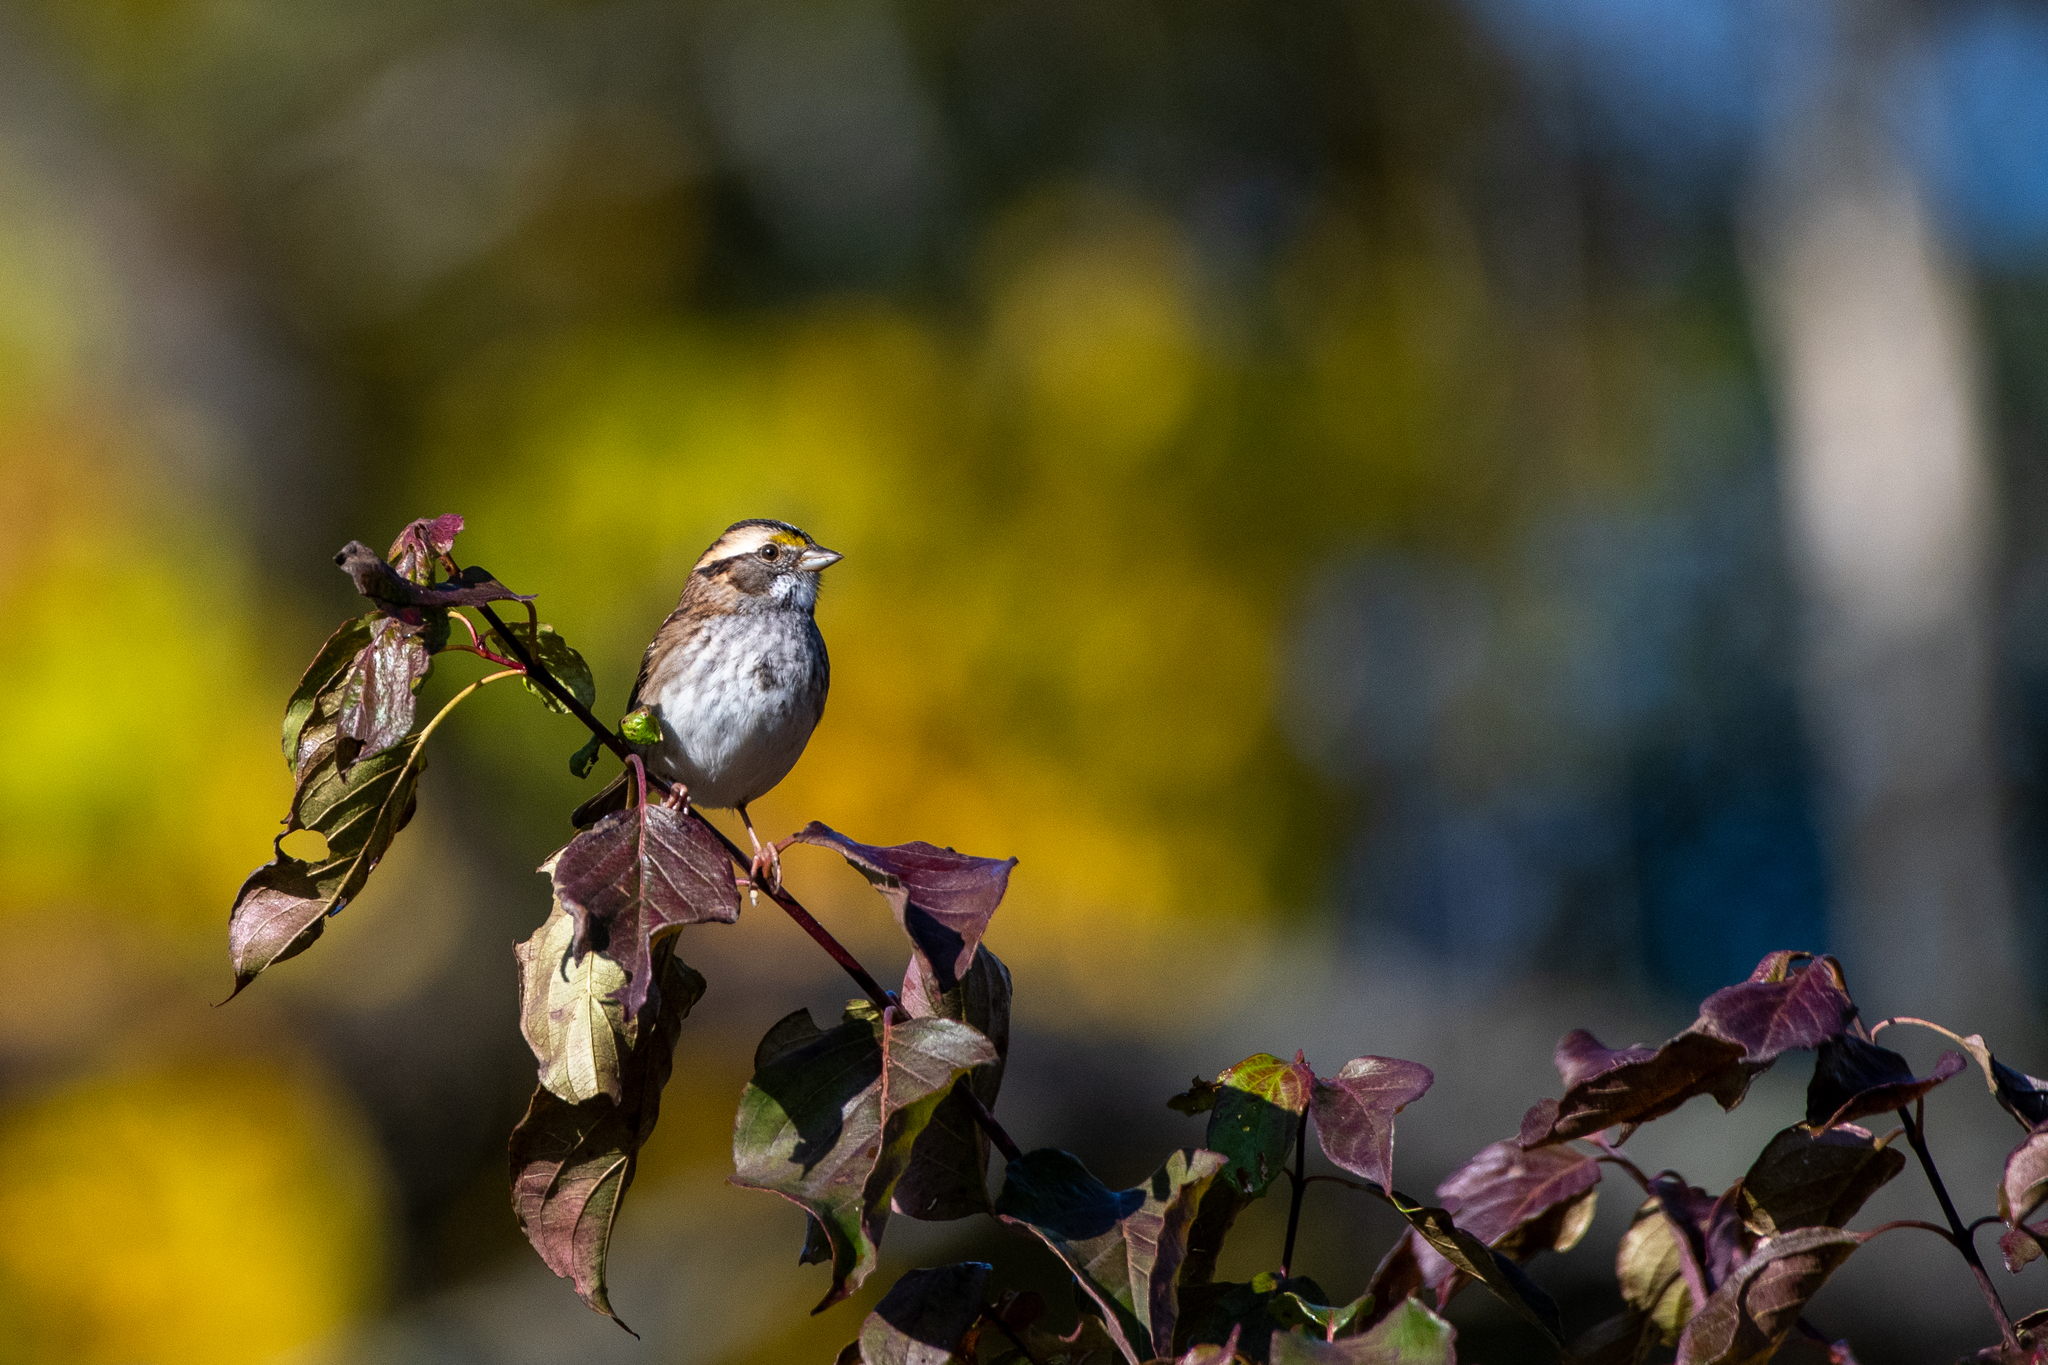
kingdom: Animalia
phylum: Chordata
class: Aves
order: Passeriformes
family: Passerellidae
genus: Zonotrichia
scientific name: Zonotrichia albicollis
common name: White-throated sparrow
